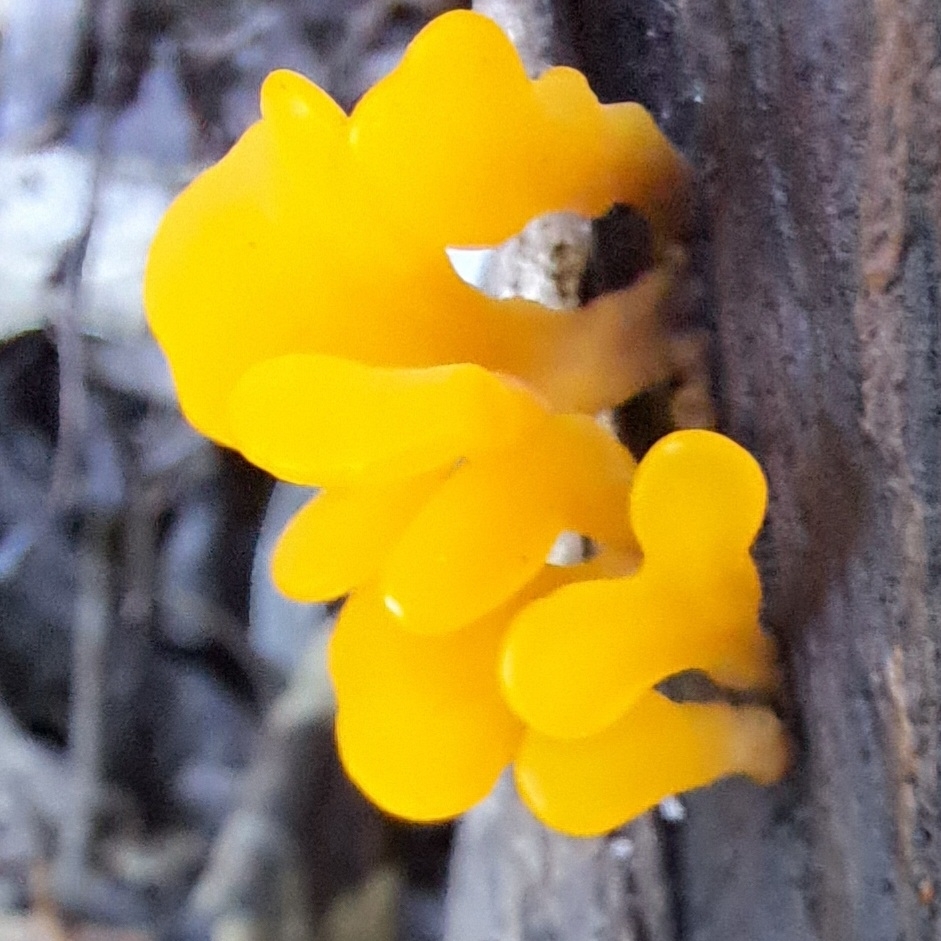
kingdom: Fungi
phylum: Basidiomycota
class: Dacrymycetes
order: Dacrymycetales
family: Dacrymycetaceae
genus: Dacrymyces
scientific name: Dacrymyces spathularius
